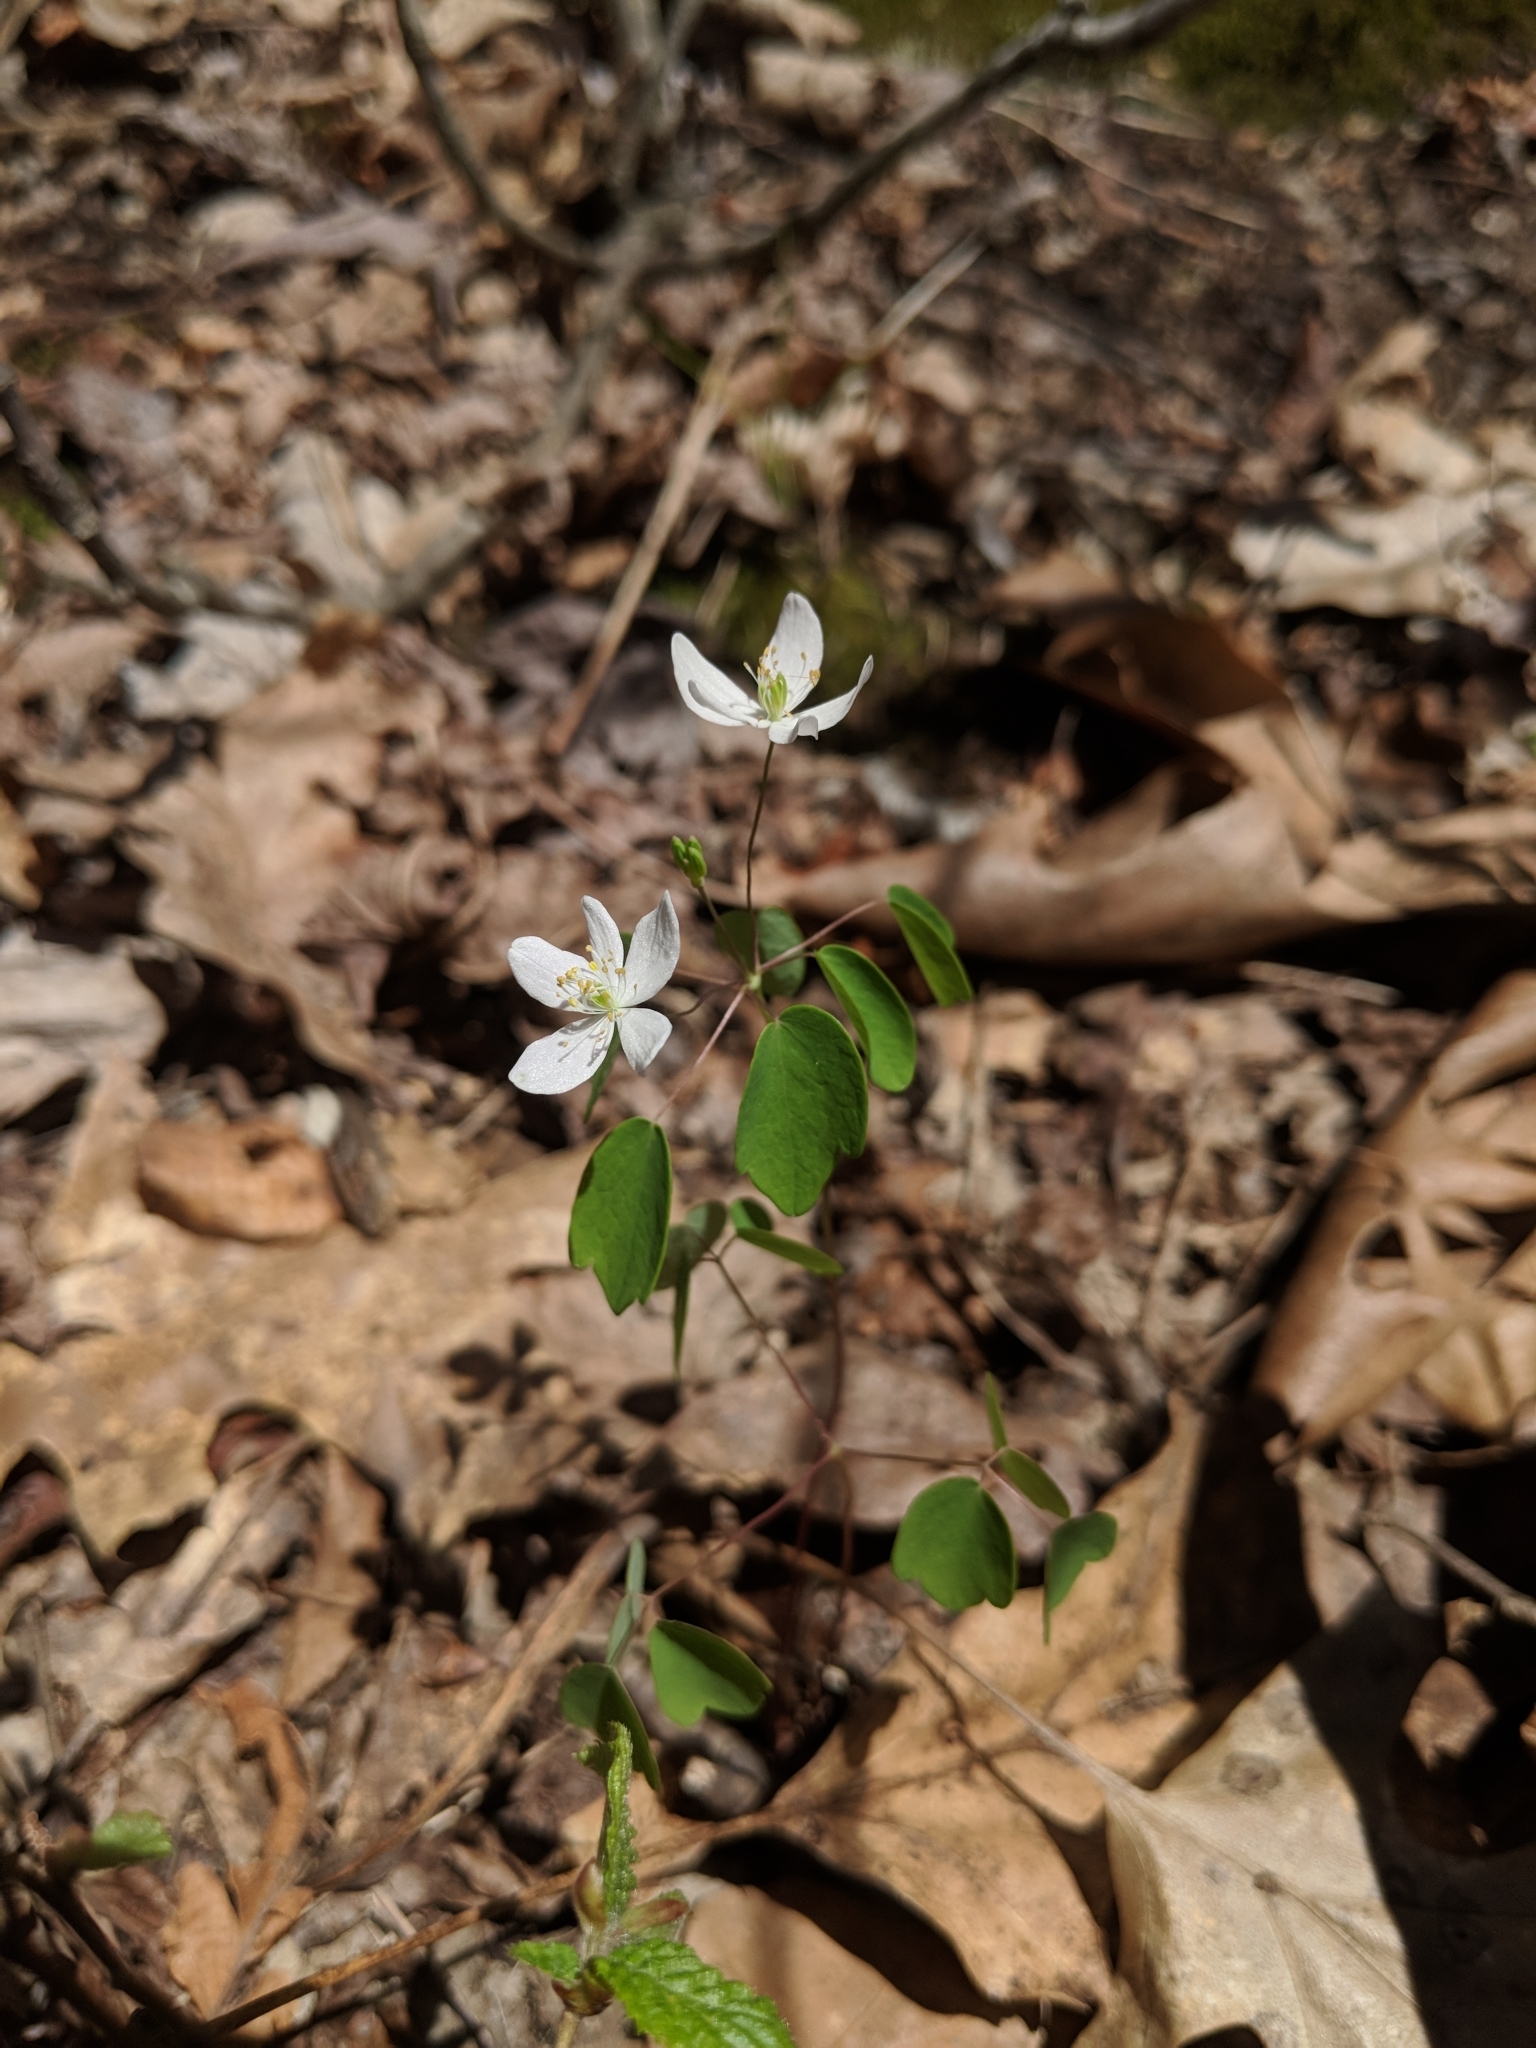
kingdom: Plantae
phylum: Tracheophyta
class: Magnoliopsida
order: Ranunculales
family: Ranunculaceae
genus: Thalictrum
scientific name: Thalictrum thalictroides
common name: Rue-anemone
